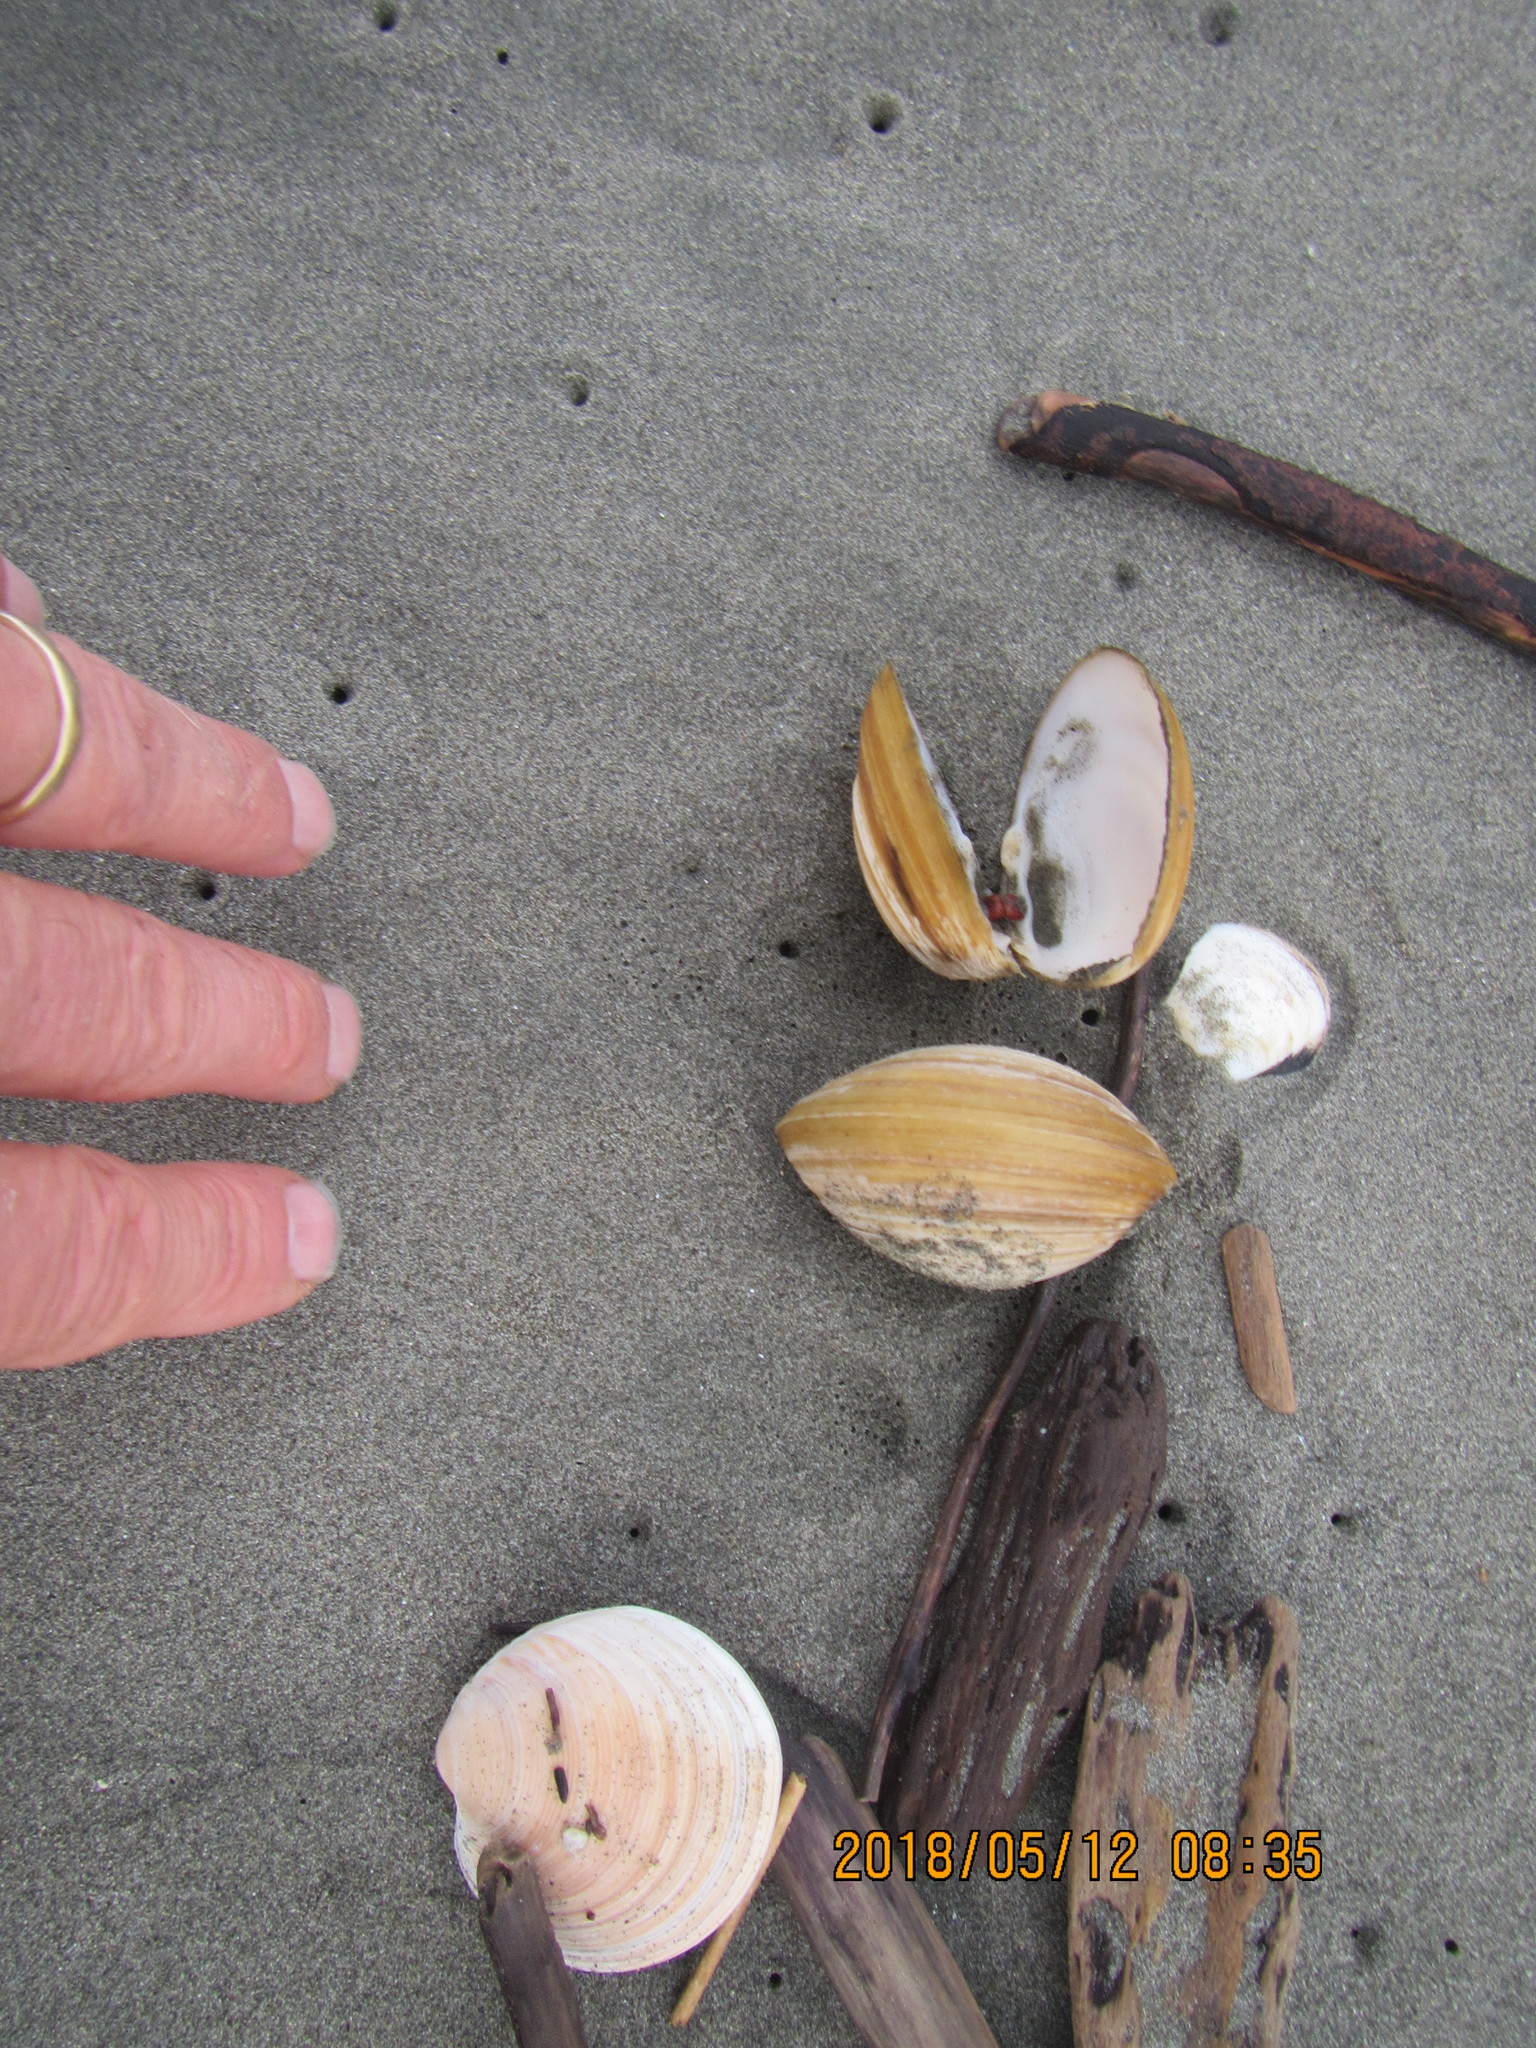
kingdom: Animalia
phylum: Mollusca
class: Bivalvia
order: Venerida
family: Mactridae
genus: Spisula
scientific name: Spisula discors
